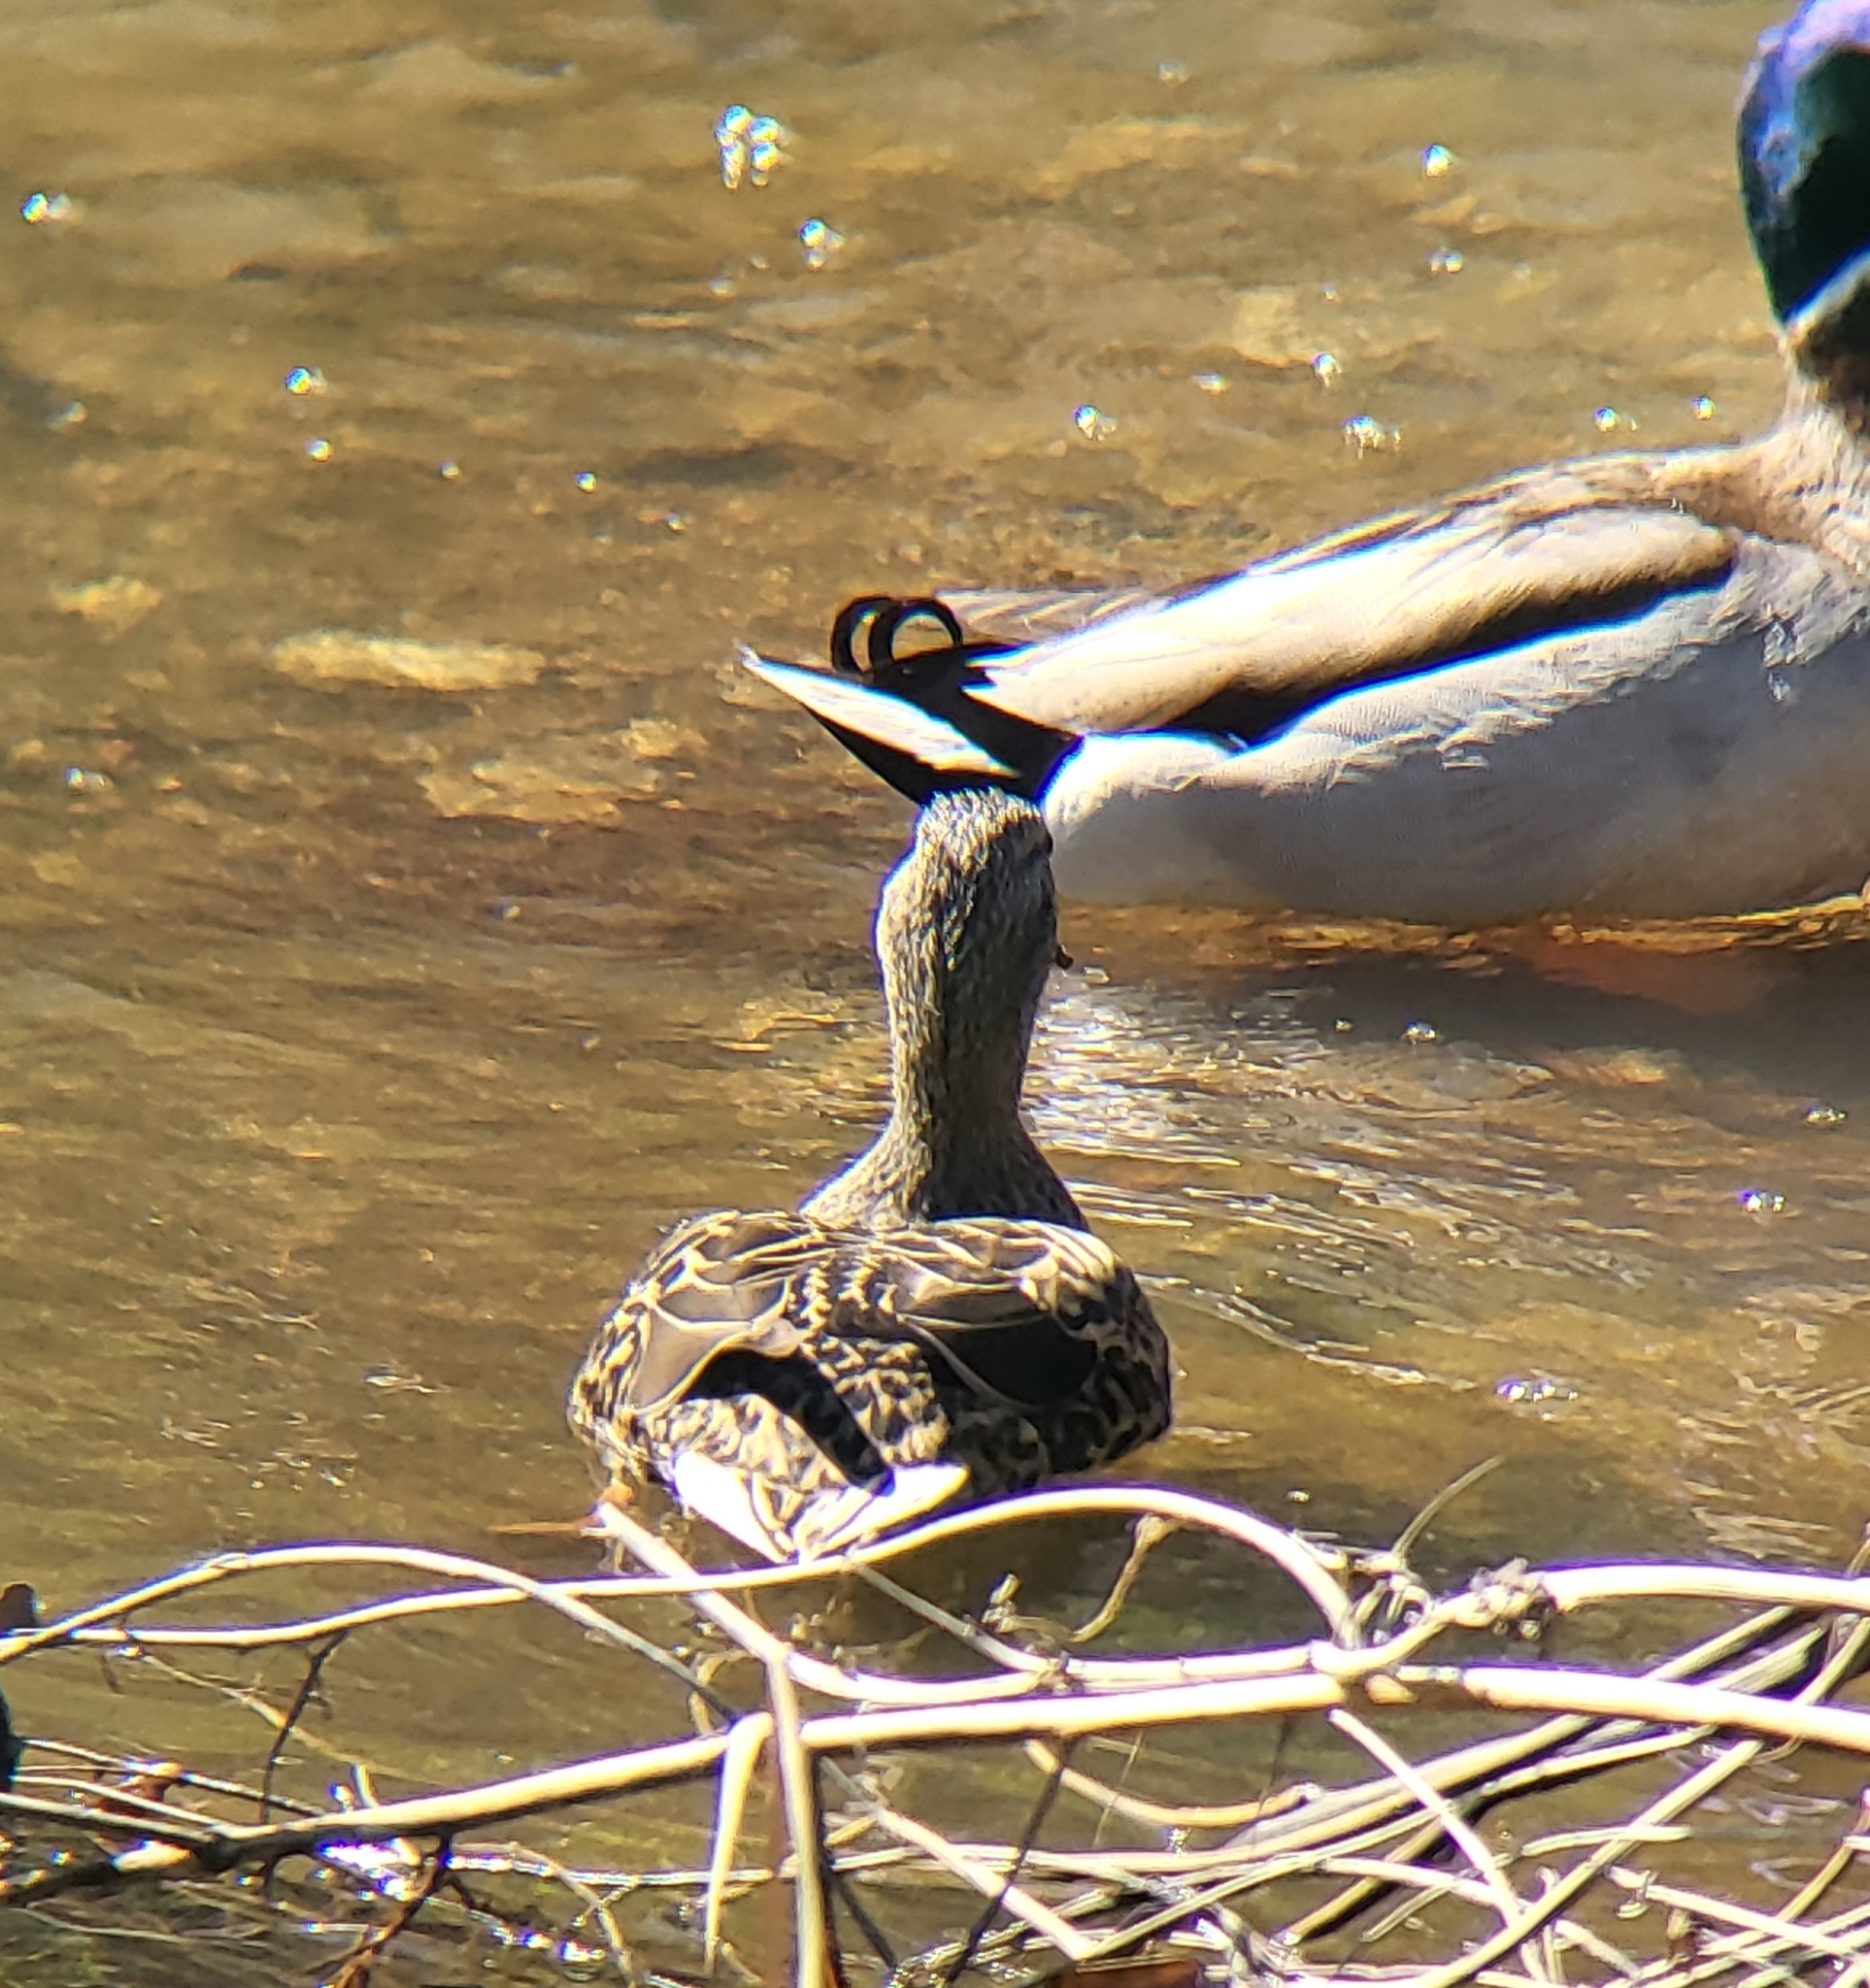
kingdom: Animalia
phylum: Chordata
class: Aves
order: Anseriformes
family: Anatidae
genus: Anas
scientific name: Anas platyrhynchos
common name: Mallard
